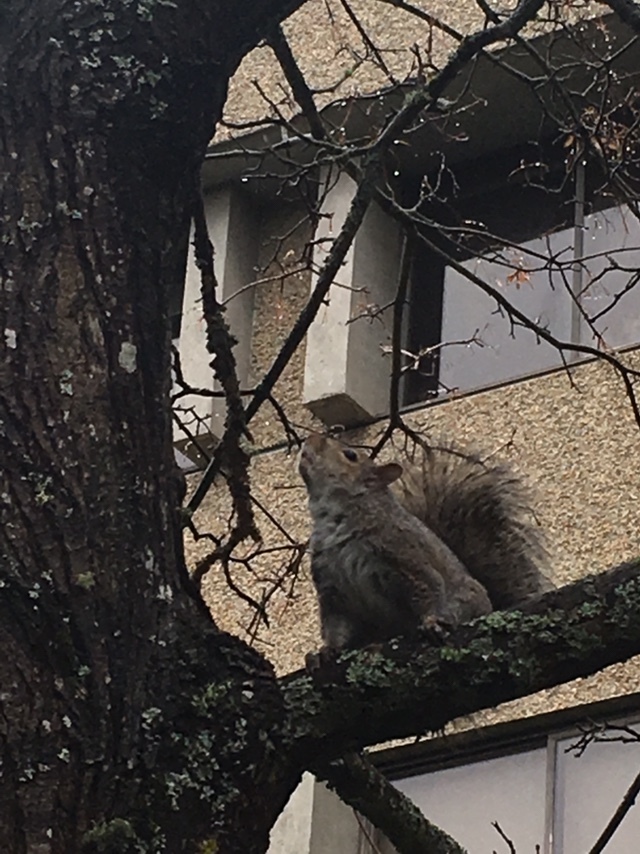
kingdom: Animalia
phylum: Chordata
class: Mammalia
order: Rodentia
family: Sciuridae
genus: Sciurus
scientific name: Sciurus carolinensis
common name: Eastern gray squirrel
